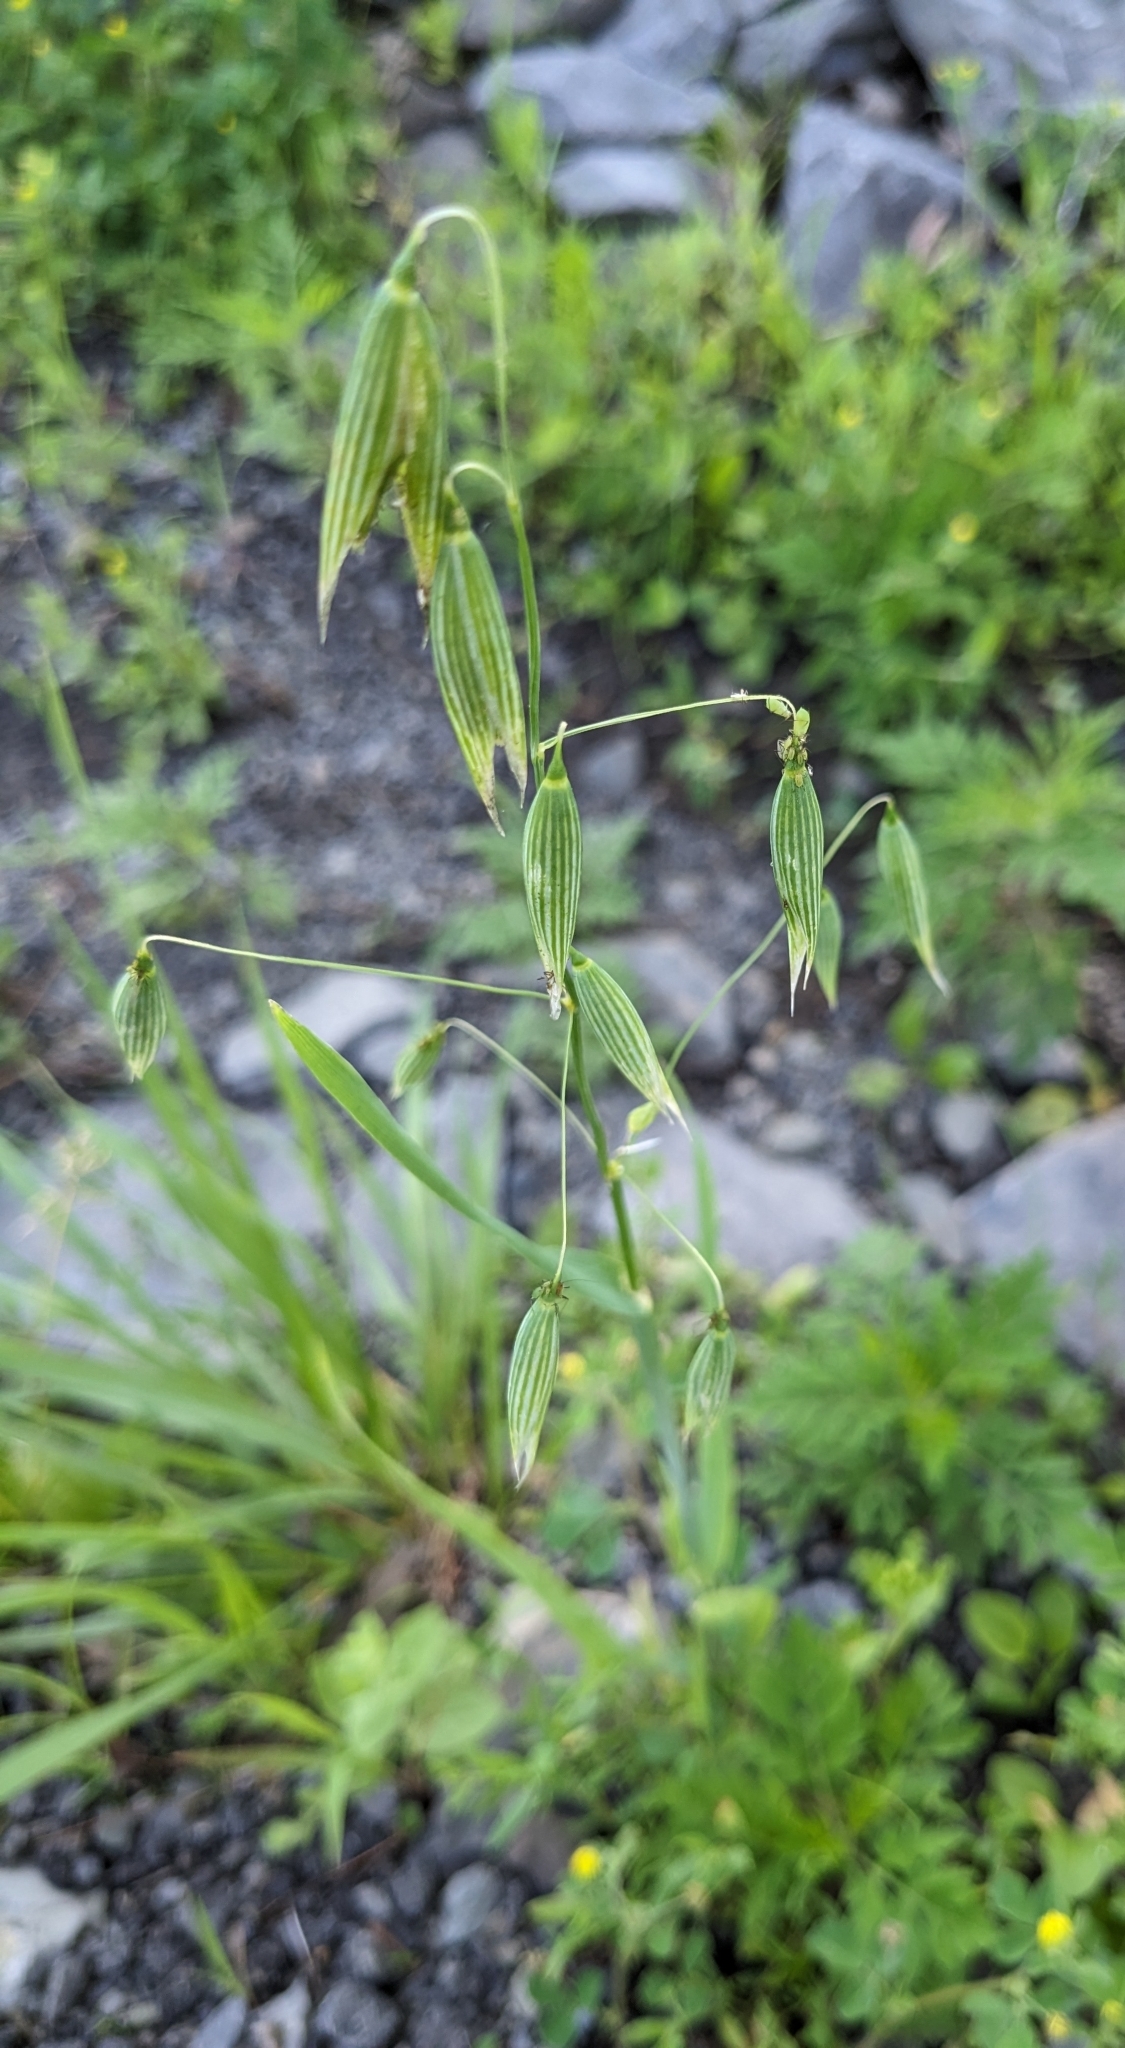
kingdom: Plantae
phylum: Tracheophyta
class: Liliopsida
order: Poales
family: Poaceae
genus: Avena
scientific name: Avena sativa
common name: Oat
